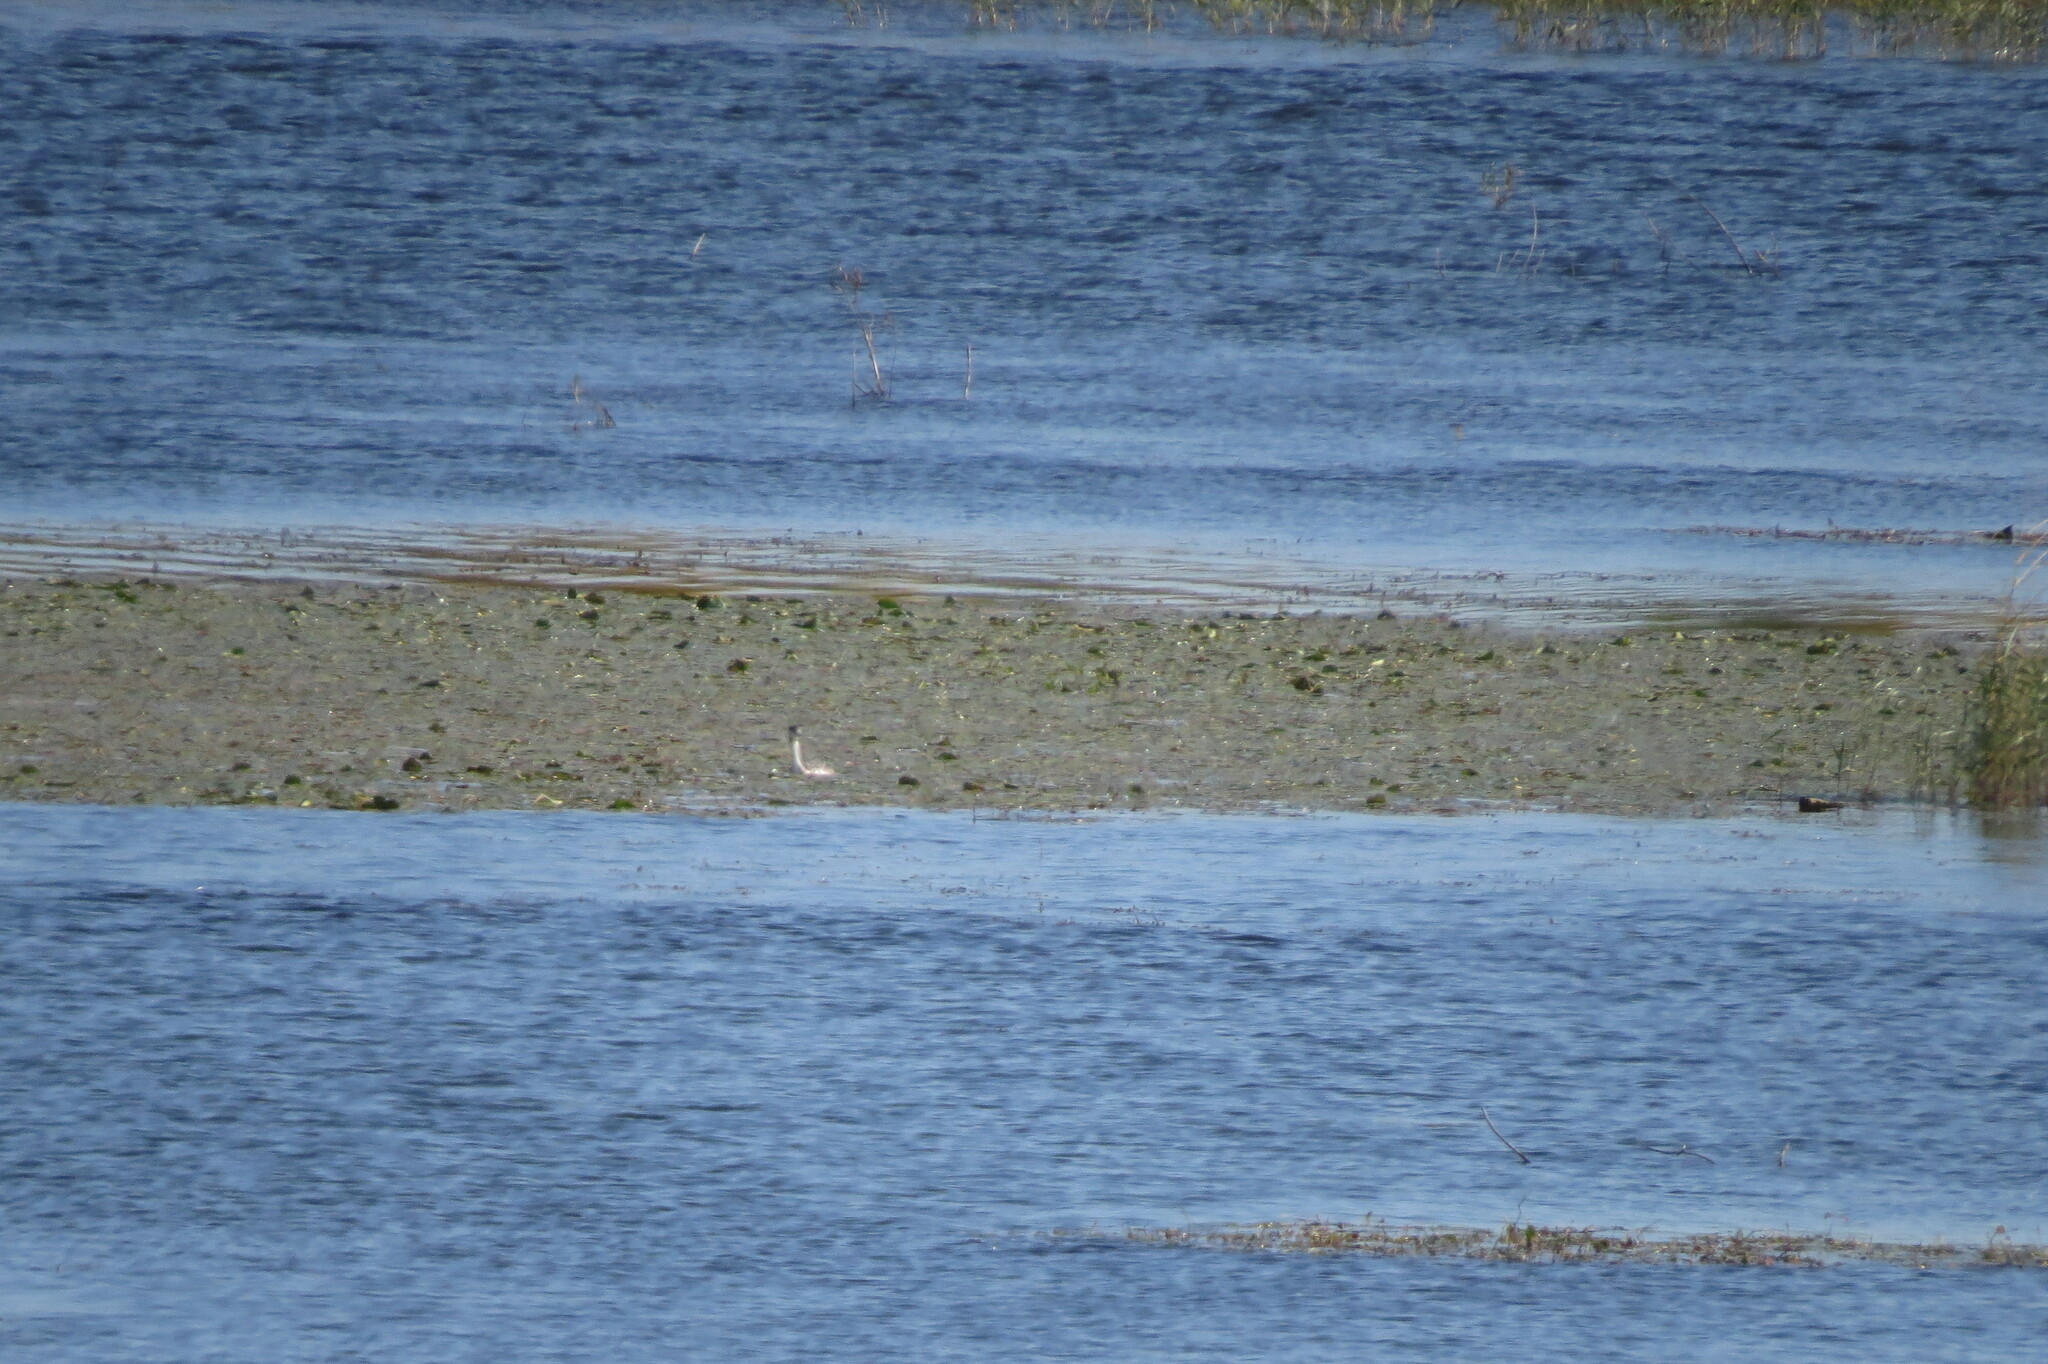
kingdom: Animalia
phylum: Chordata
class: Aves
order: Podicipediformes
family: Podicipedidae
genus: Podiceps
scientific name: Podiceps cristatus
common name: Great crested grebe
